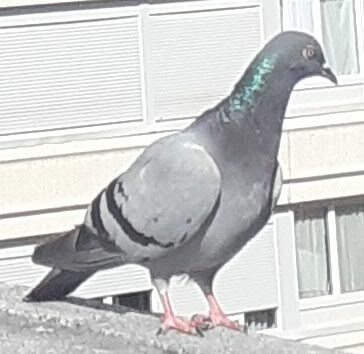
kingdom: Animalia
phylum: Chordata
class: Aves
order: Columbiformes
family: Columbidae
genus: Columba
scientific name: Columba livia
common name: Rock pigeon
